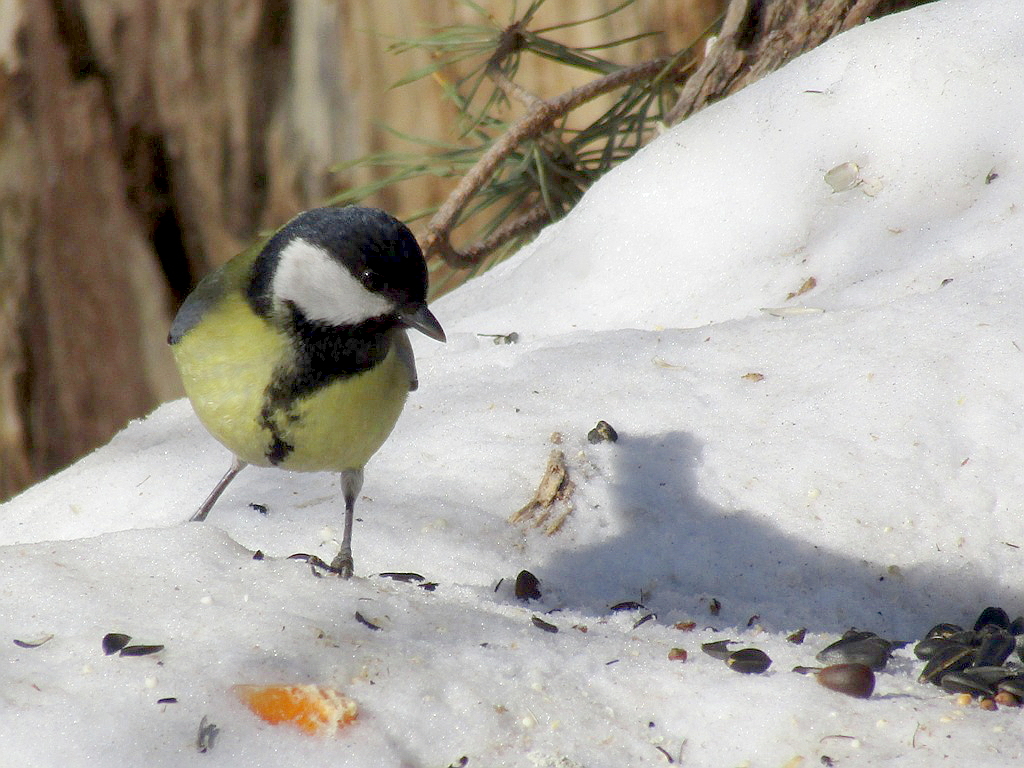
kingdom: Animalia
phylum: Chordata
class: Aves
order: Passeriformes
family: Paridae
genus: Parus
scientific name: Parus major
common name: Great tit
